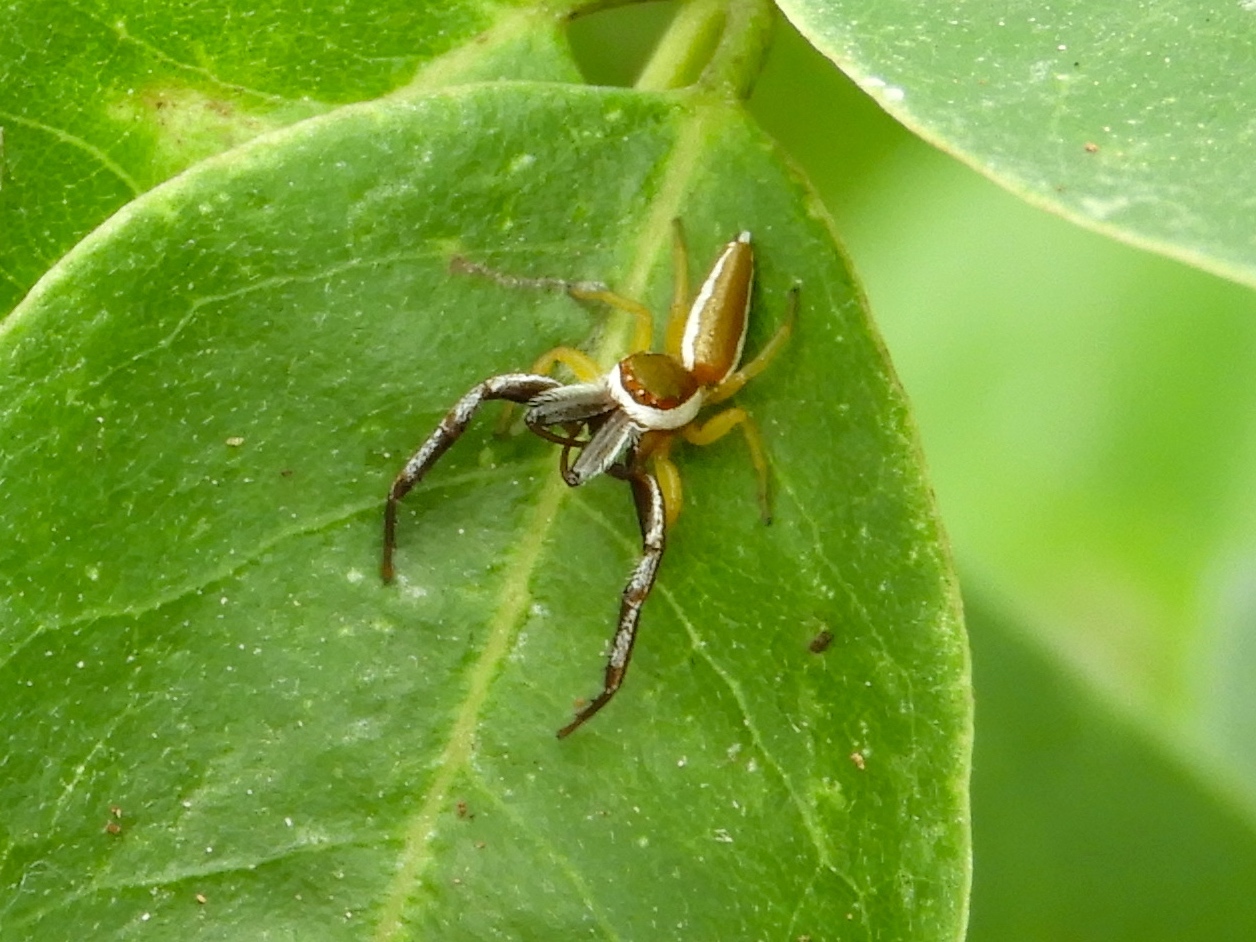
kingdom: Animalia
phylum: Arthropoda
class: Arachnida
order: Araneae
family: Salticidae
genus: Hentzia
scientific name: Hentzia palmarum
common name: Common hentz jumping spider
